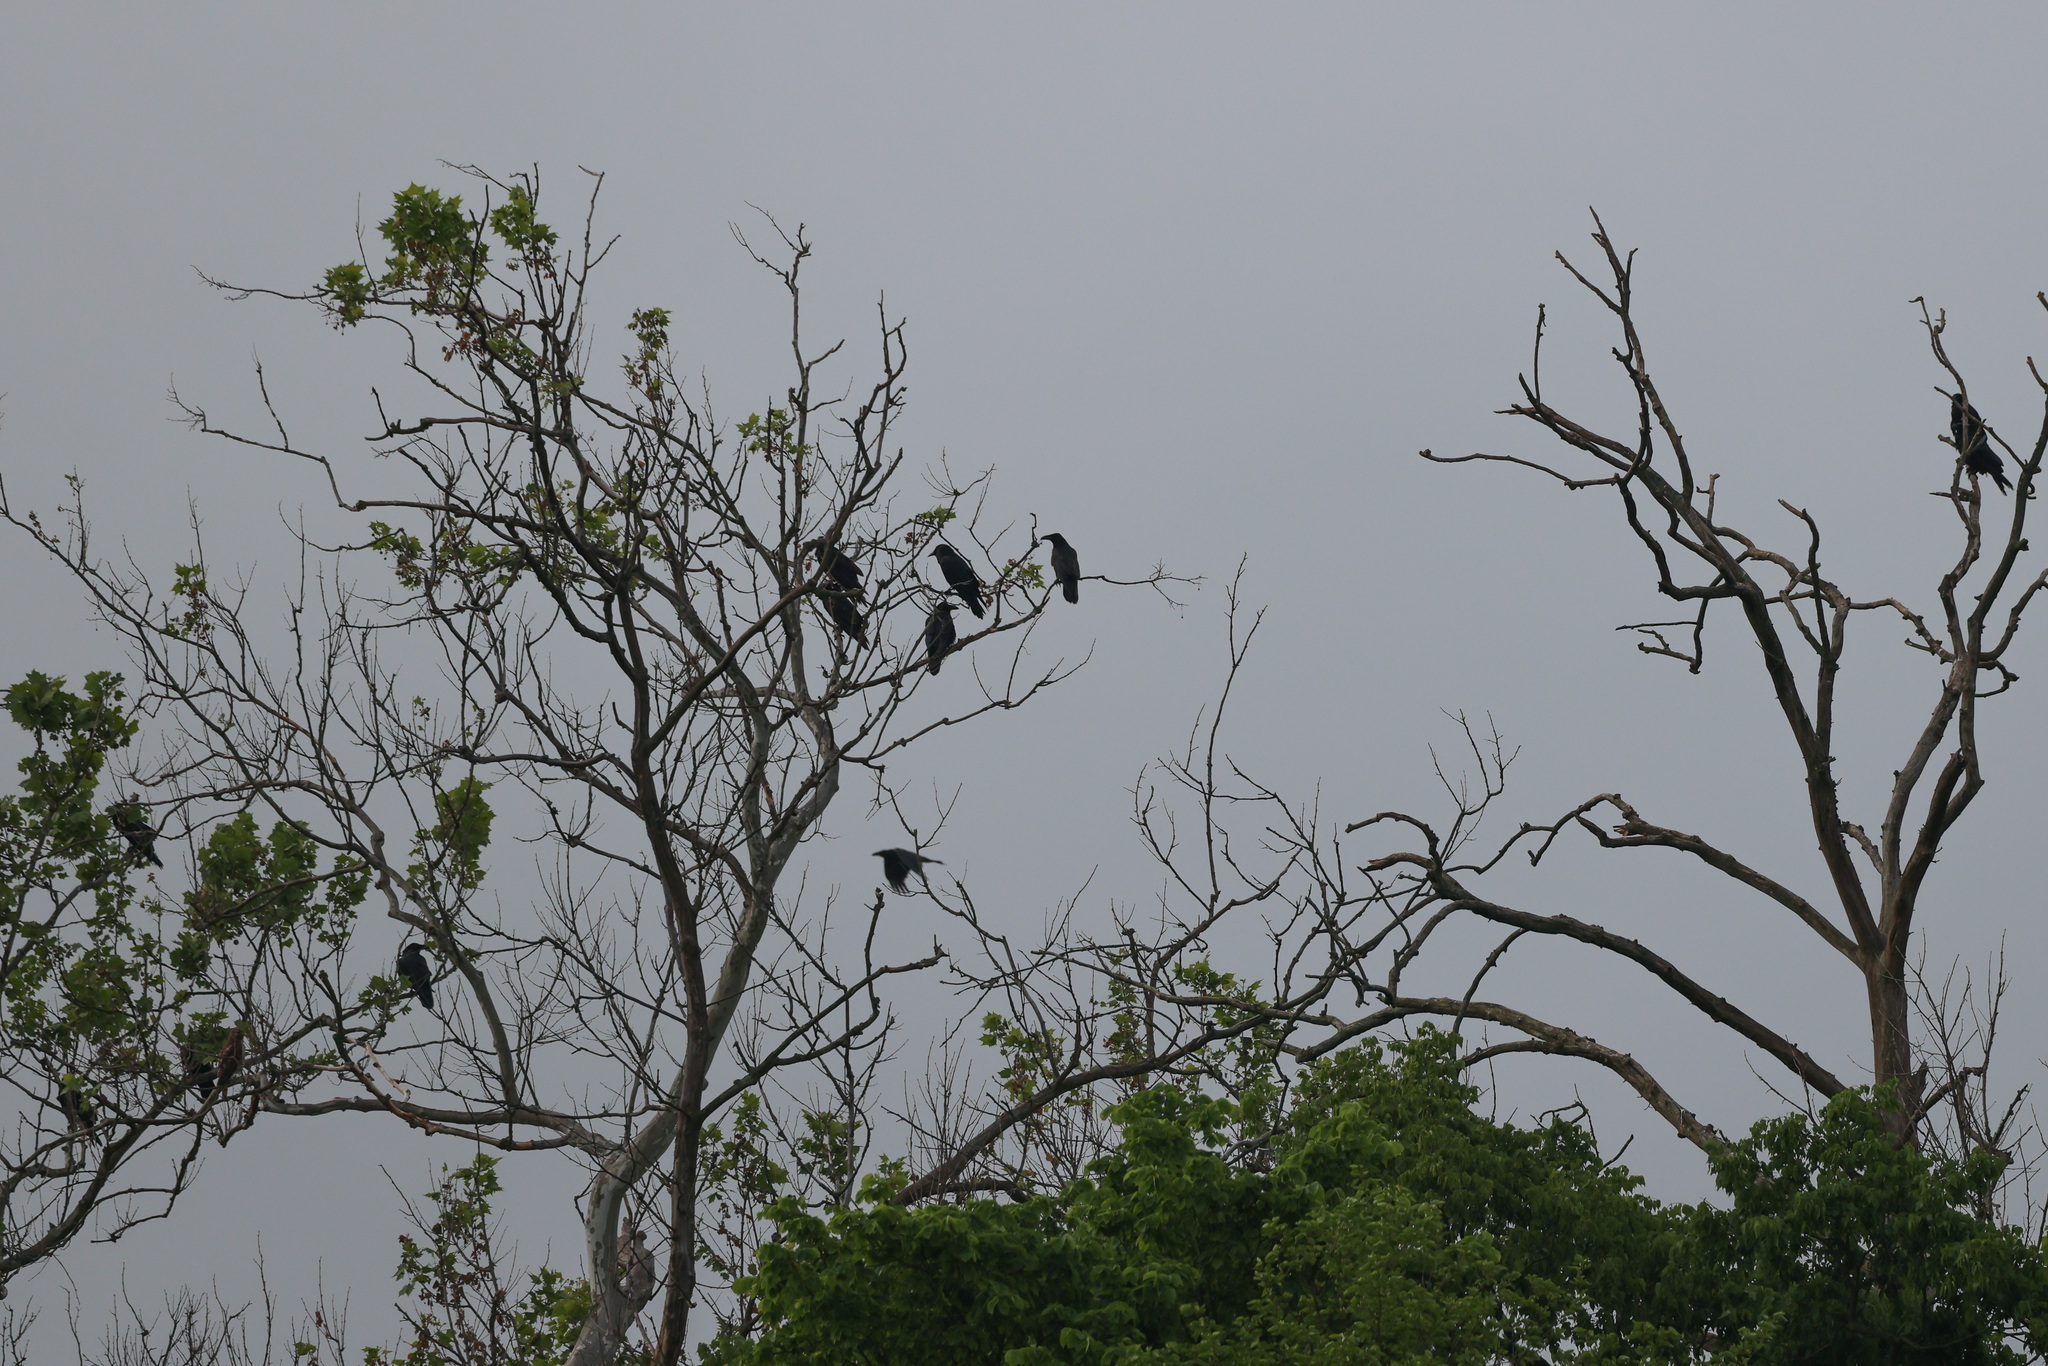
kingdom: Animalia
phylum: Chordata
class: Aves
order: Passeriformes
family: Corvidae
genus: Corvus
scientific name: Corvus corax
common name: Common raven
